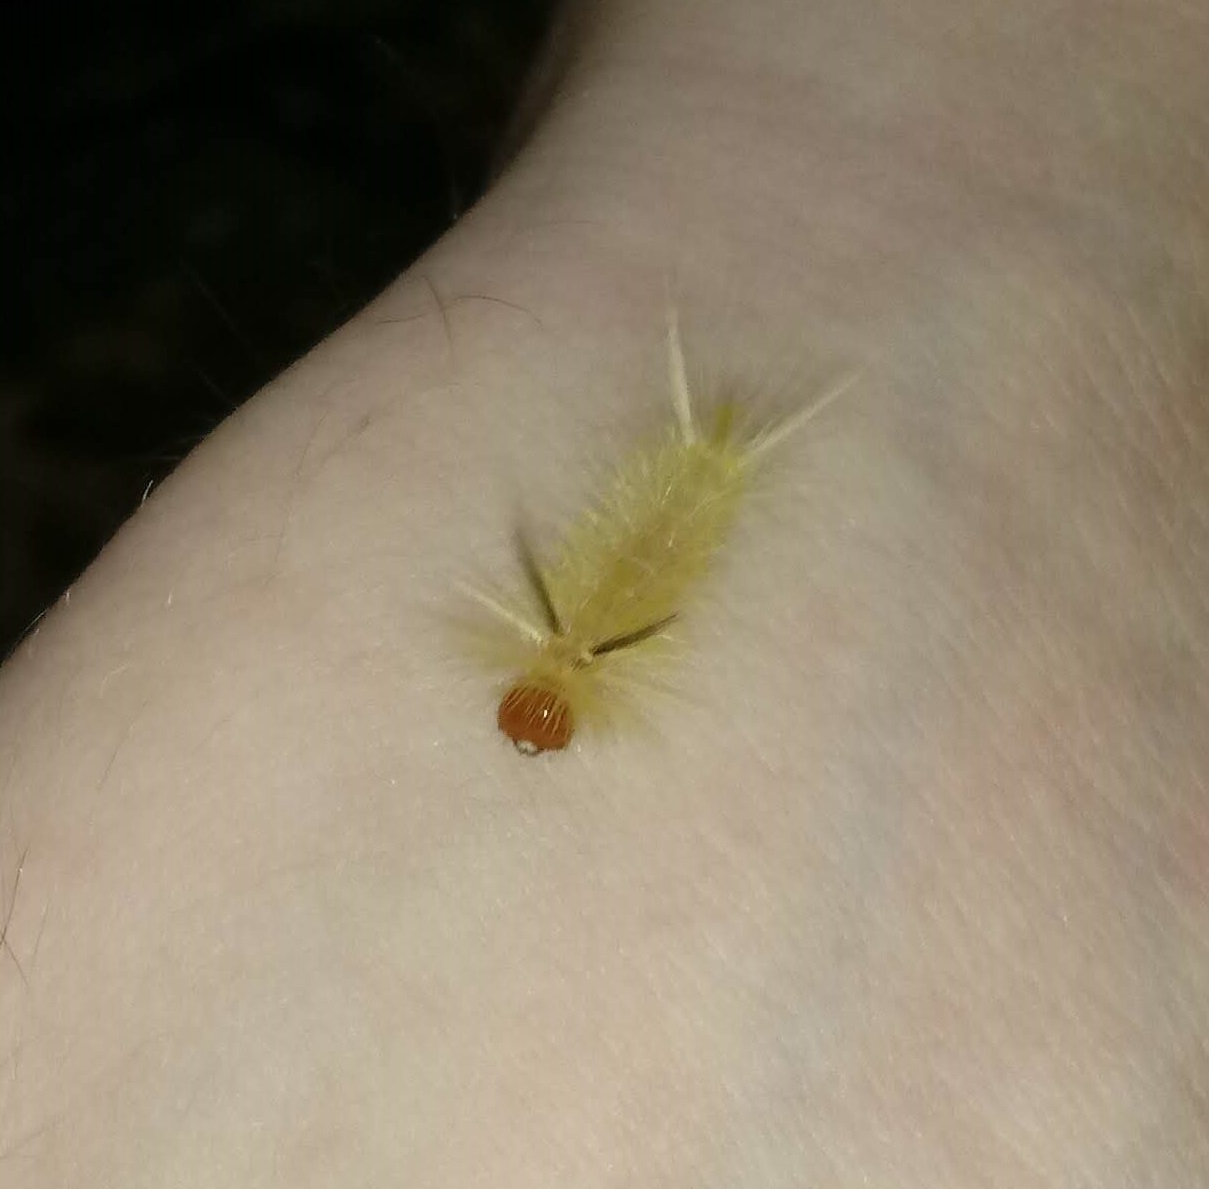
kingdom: Animalia
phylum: Arthropoda
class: Insecta
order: Lepidoptera
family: Erebidae
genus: Halysidota
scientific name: Halysidota tessellaris
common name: Banded tussock moth
